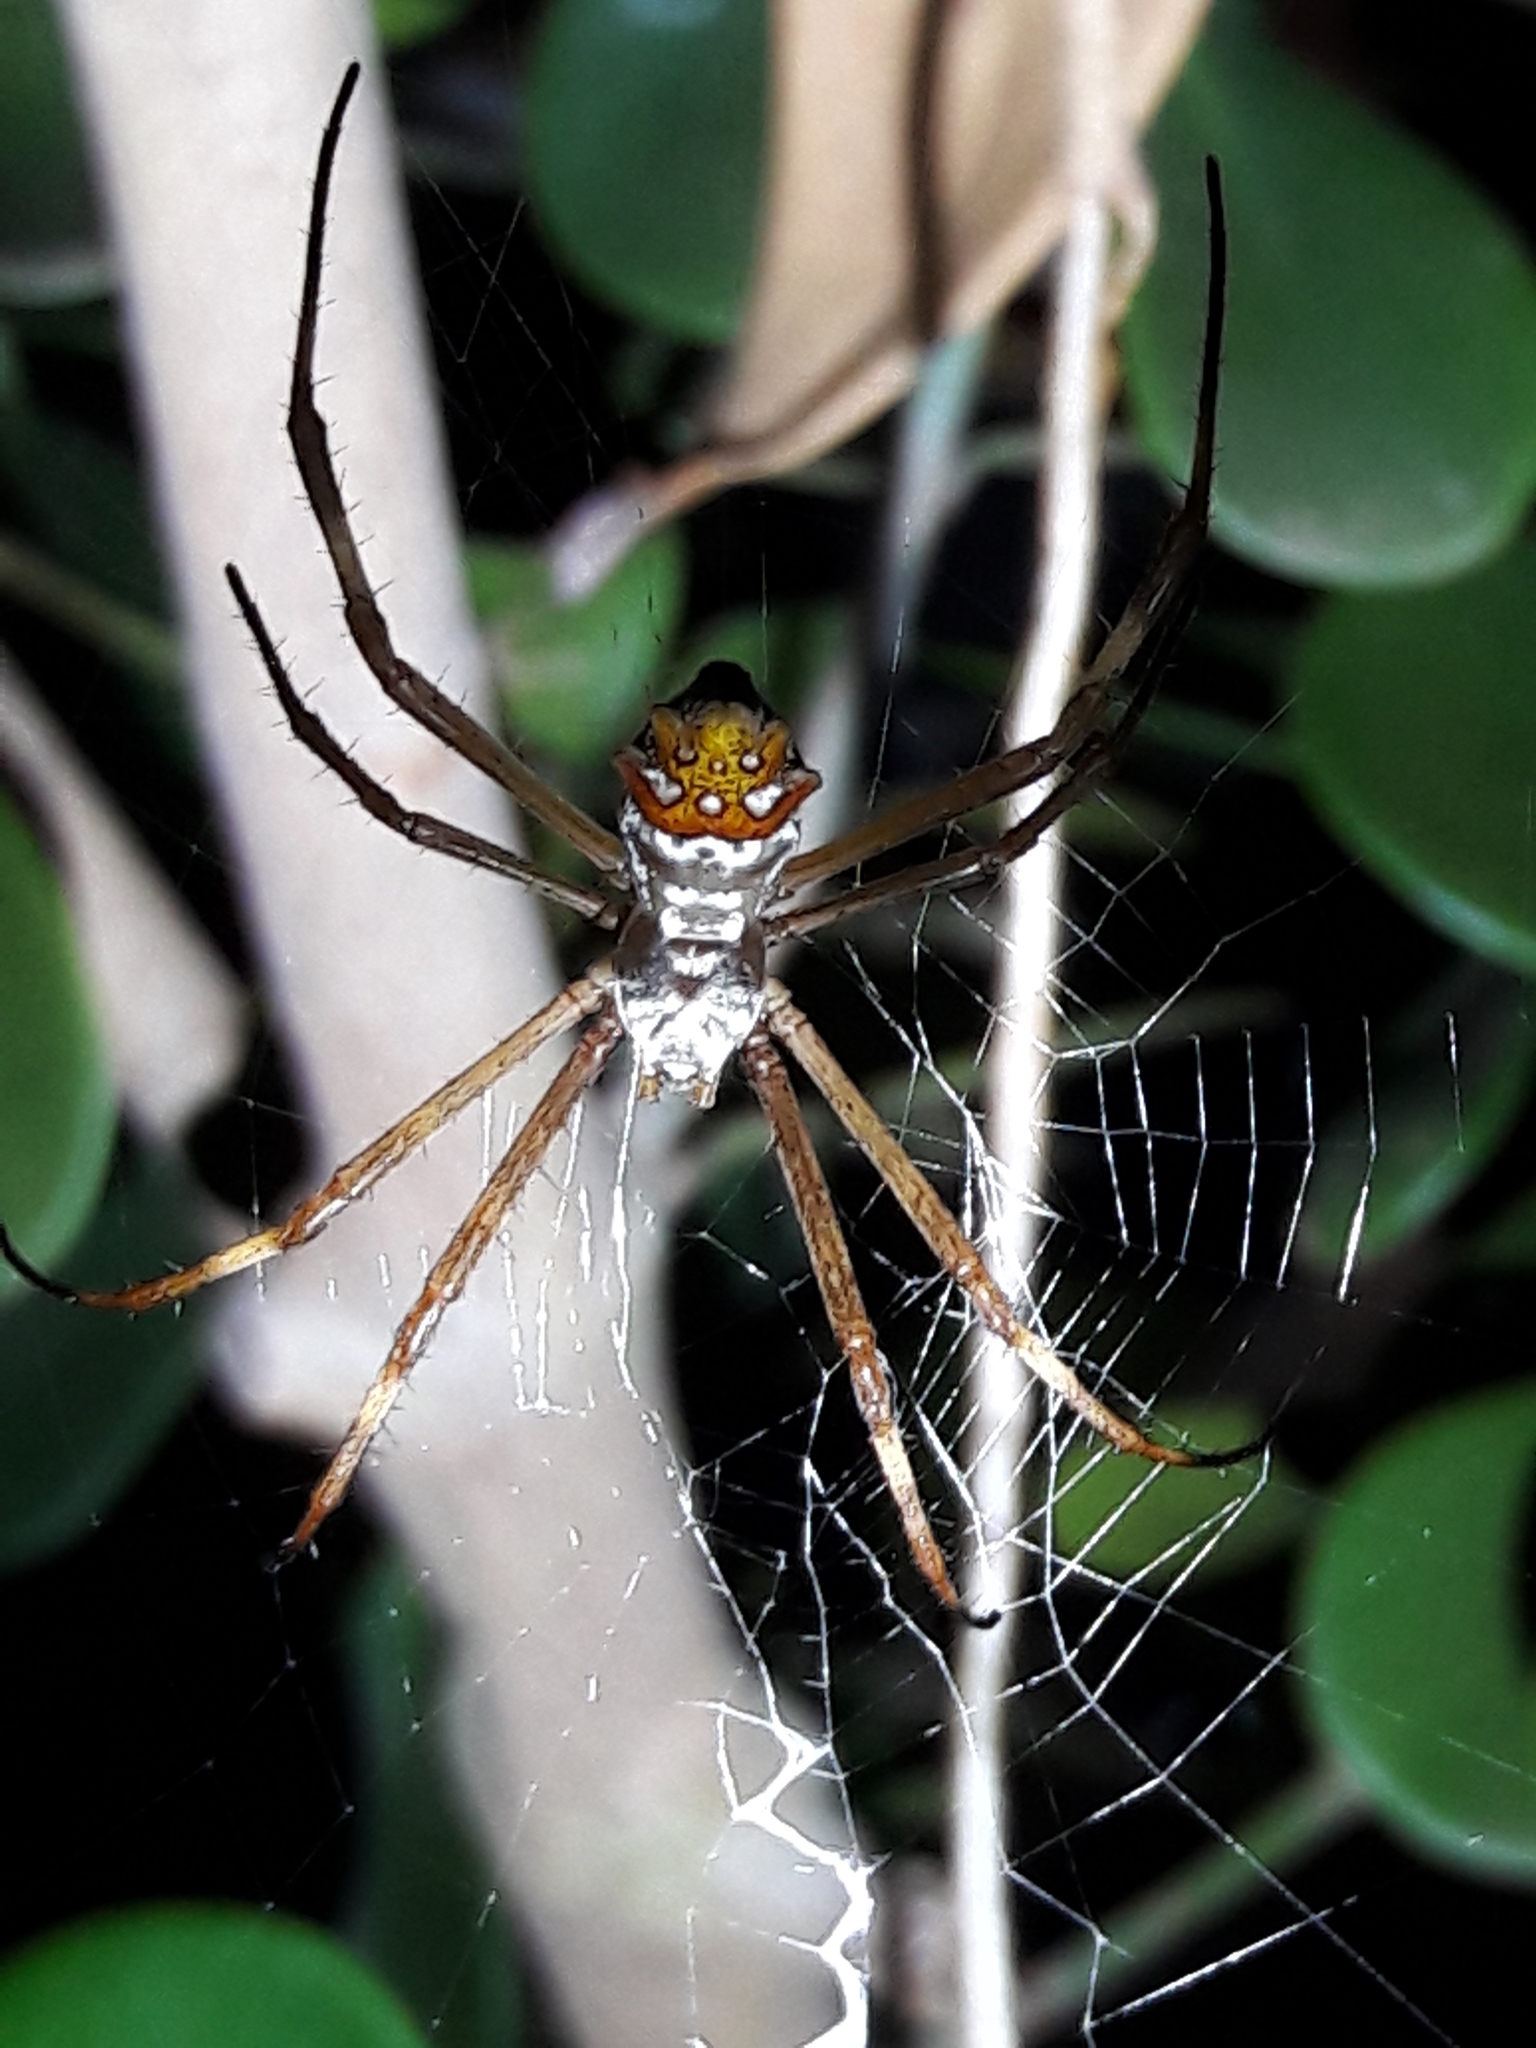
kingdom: Animalia
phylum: Arthropoda
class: Arachnida
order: Araneae
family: Araneidae
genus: Argiope
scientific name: Argiope argentata
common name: Orb weavers
